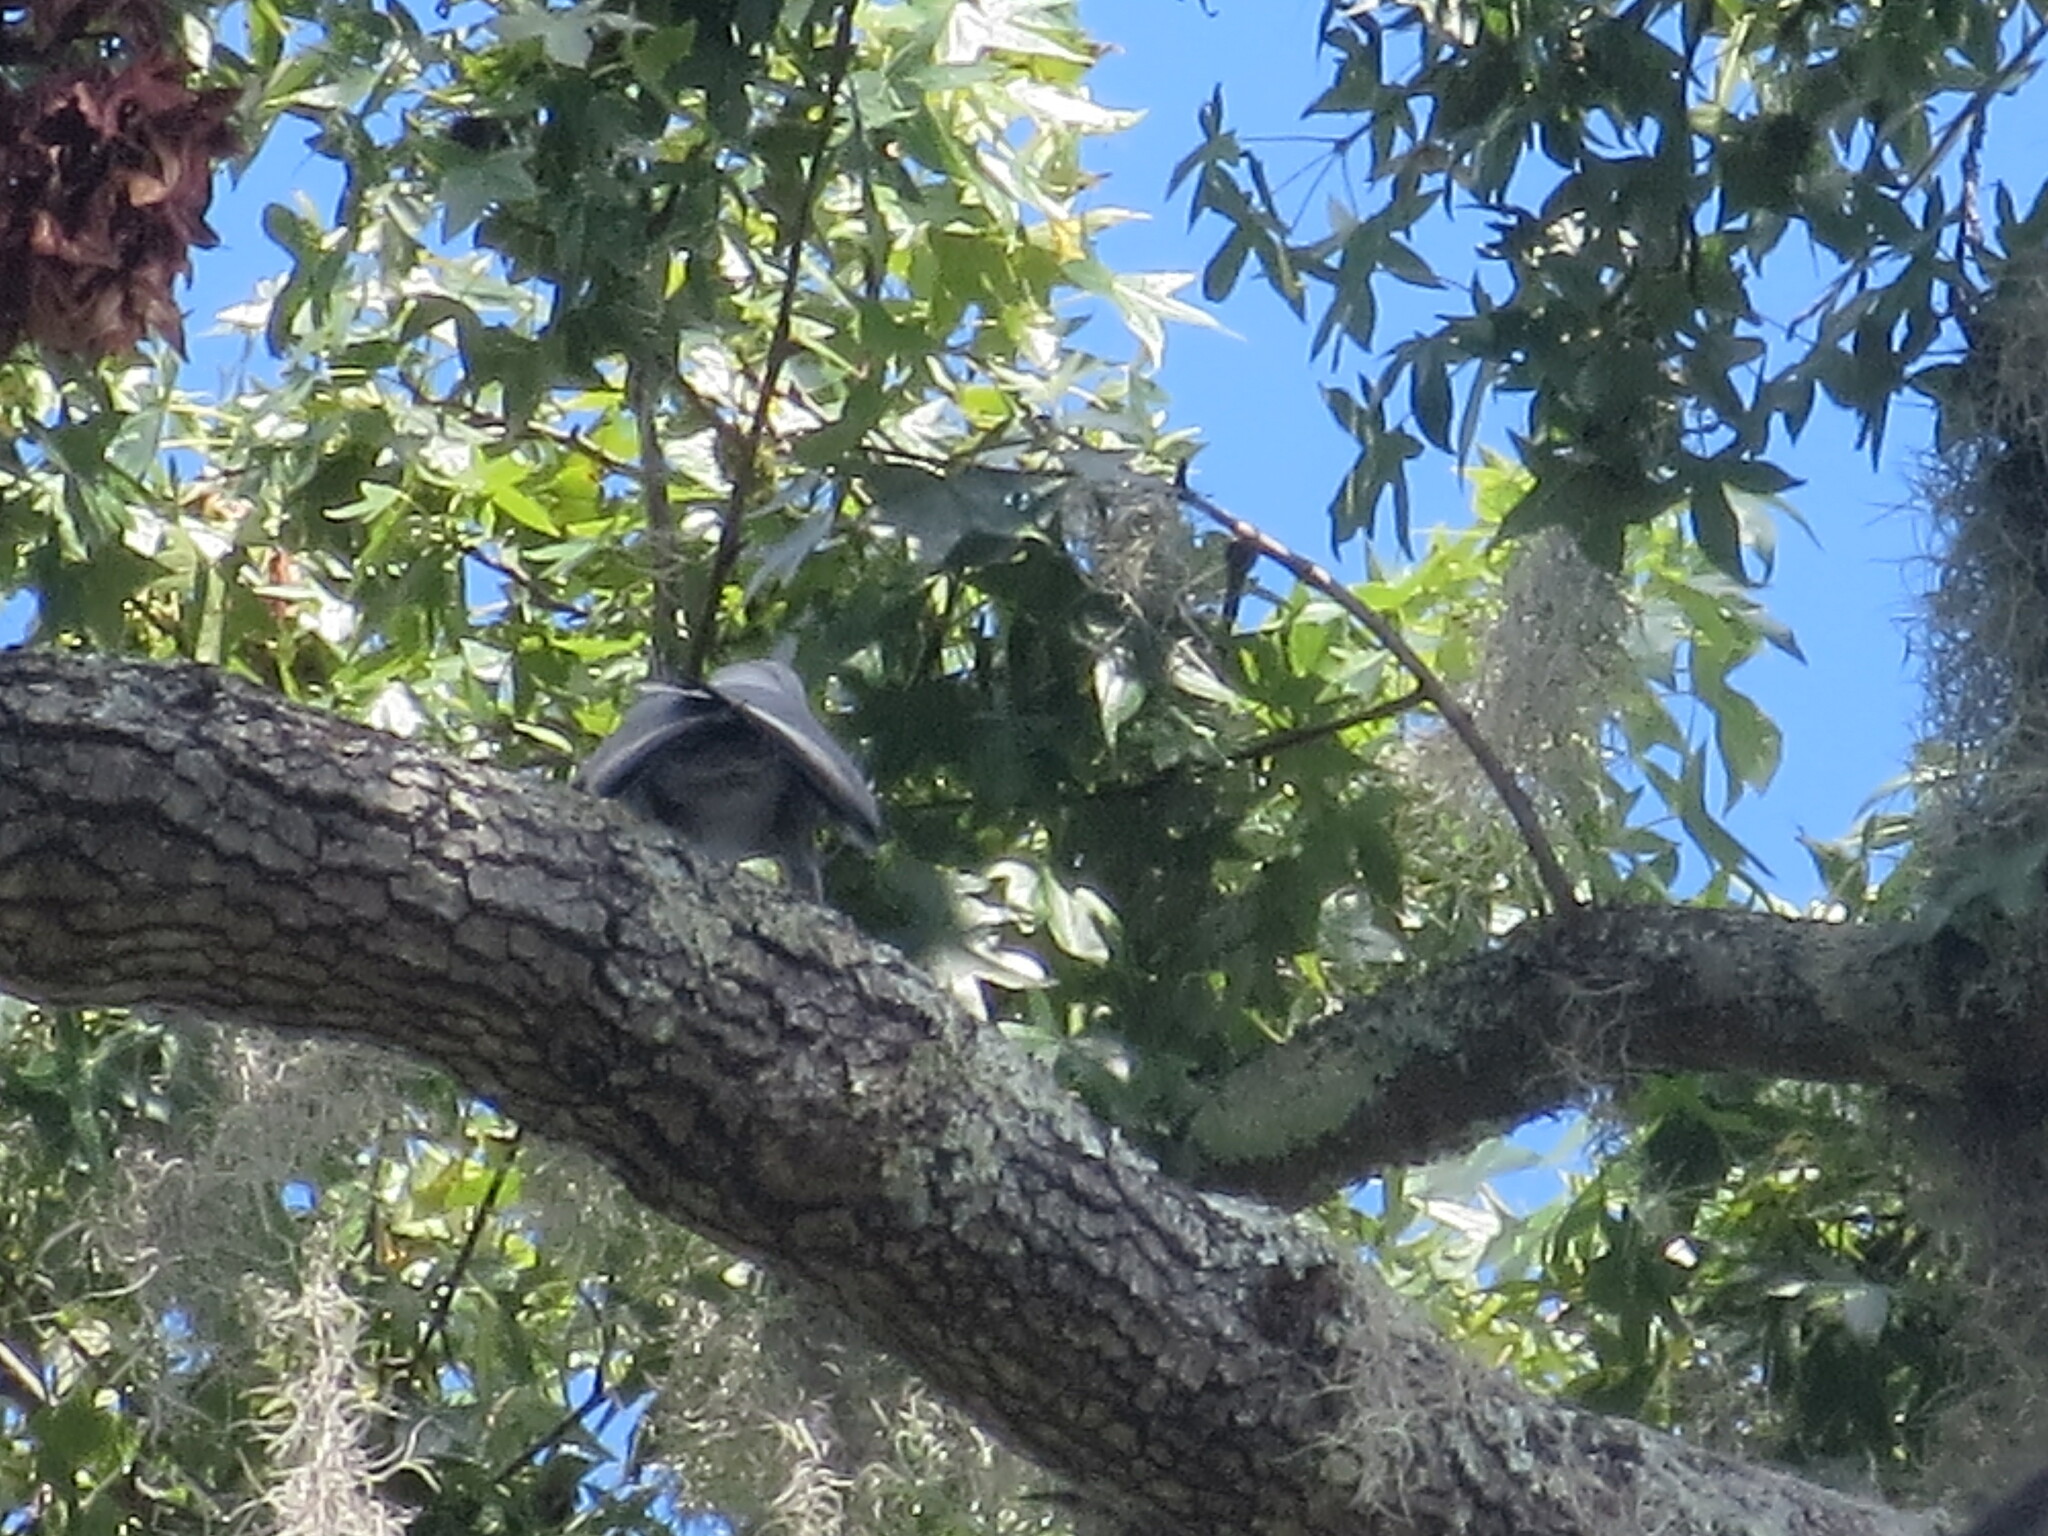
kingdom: Animalia
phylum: Chordata
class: Aves
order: Accipitriformes
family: Accipitridae
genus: Ictinia
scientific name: Ictinia mississippiensis
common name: Mississippi kite
